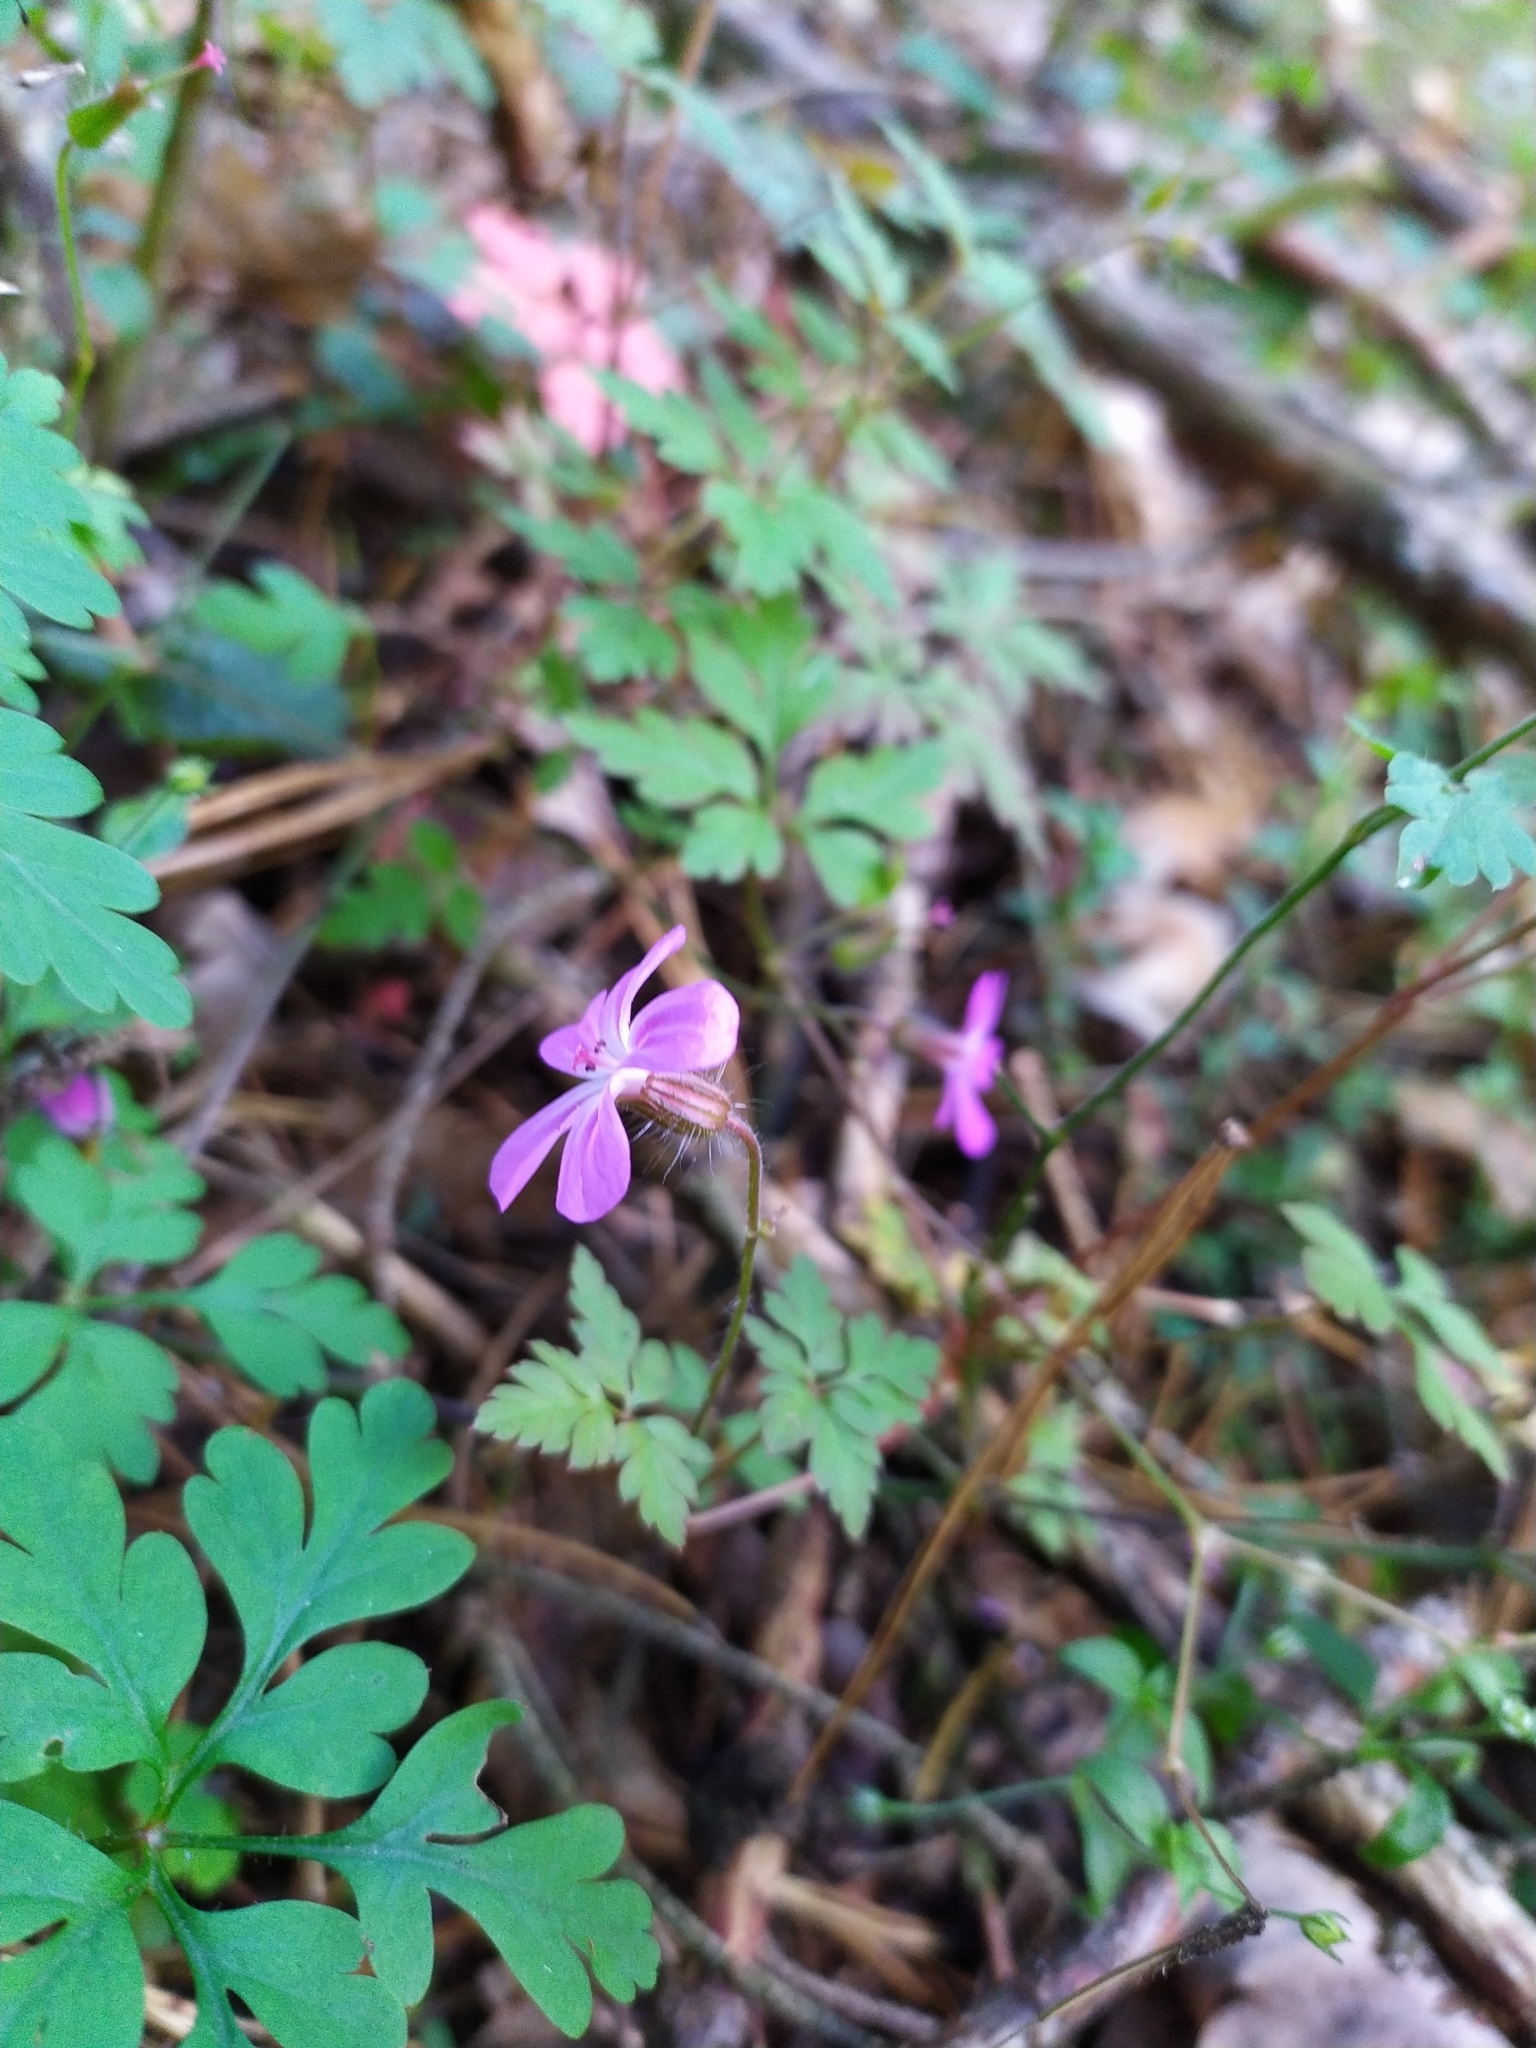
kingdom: Plantae
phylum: Tracheophyta
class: Magnoliopsida
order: Geraniales
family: Geraniaceae
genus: Geranium
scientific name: Geranium robertianum
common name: Herb-robert
